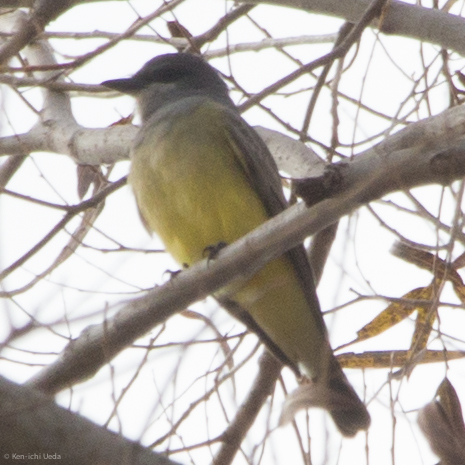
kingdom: Animalia
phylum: Chordata
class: Aves
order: Passeriformes
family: Tyrannidae
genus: Tyrannus
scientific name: Tyrannus vociferans
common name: Cassin's kingbird
